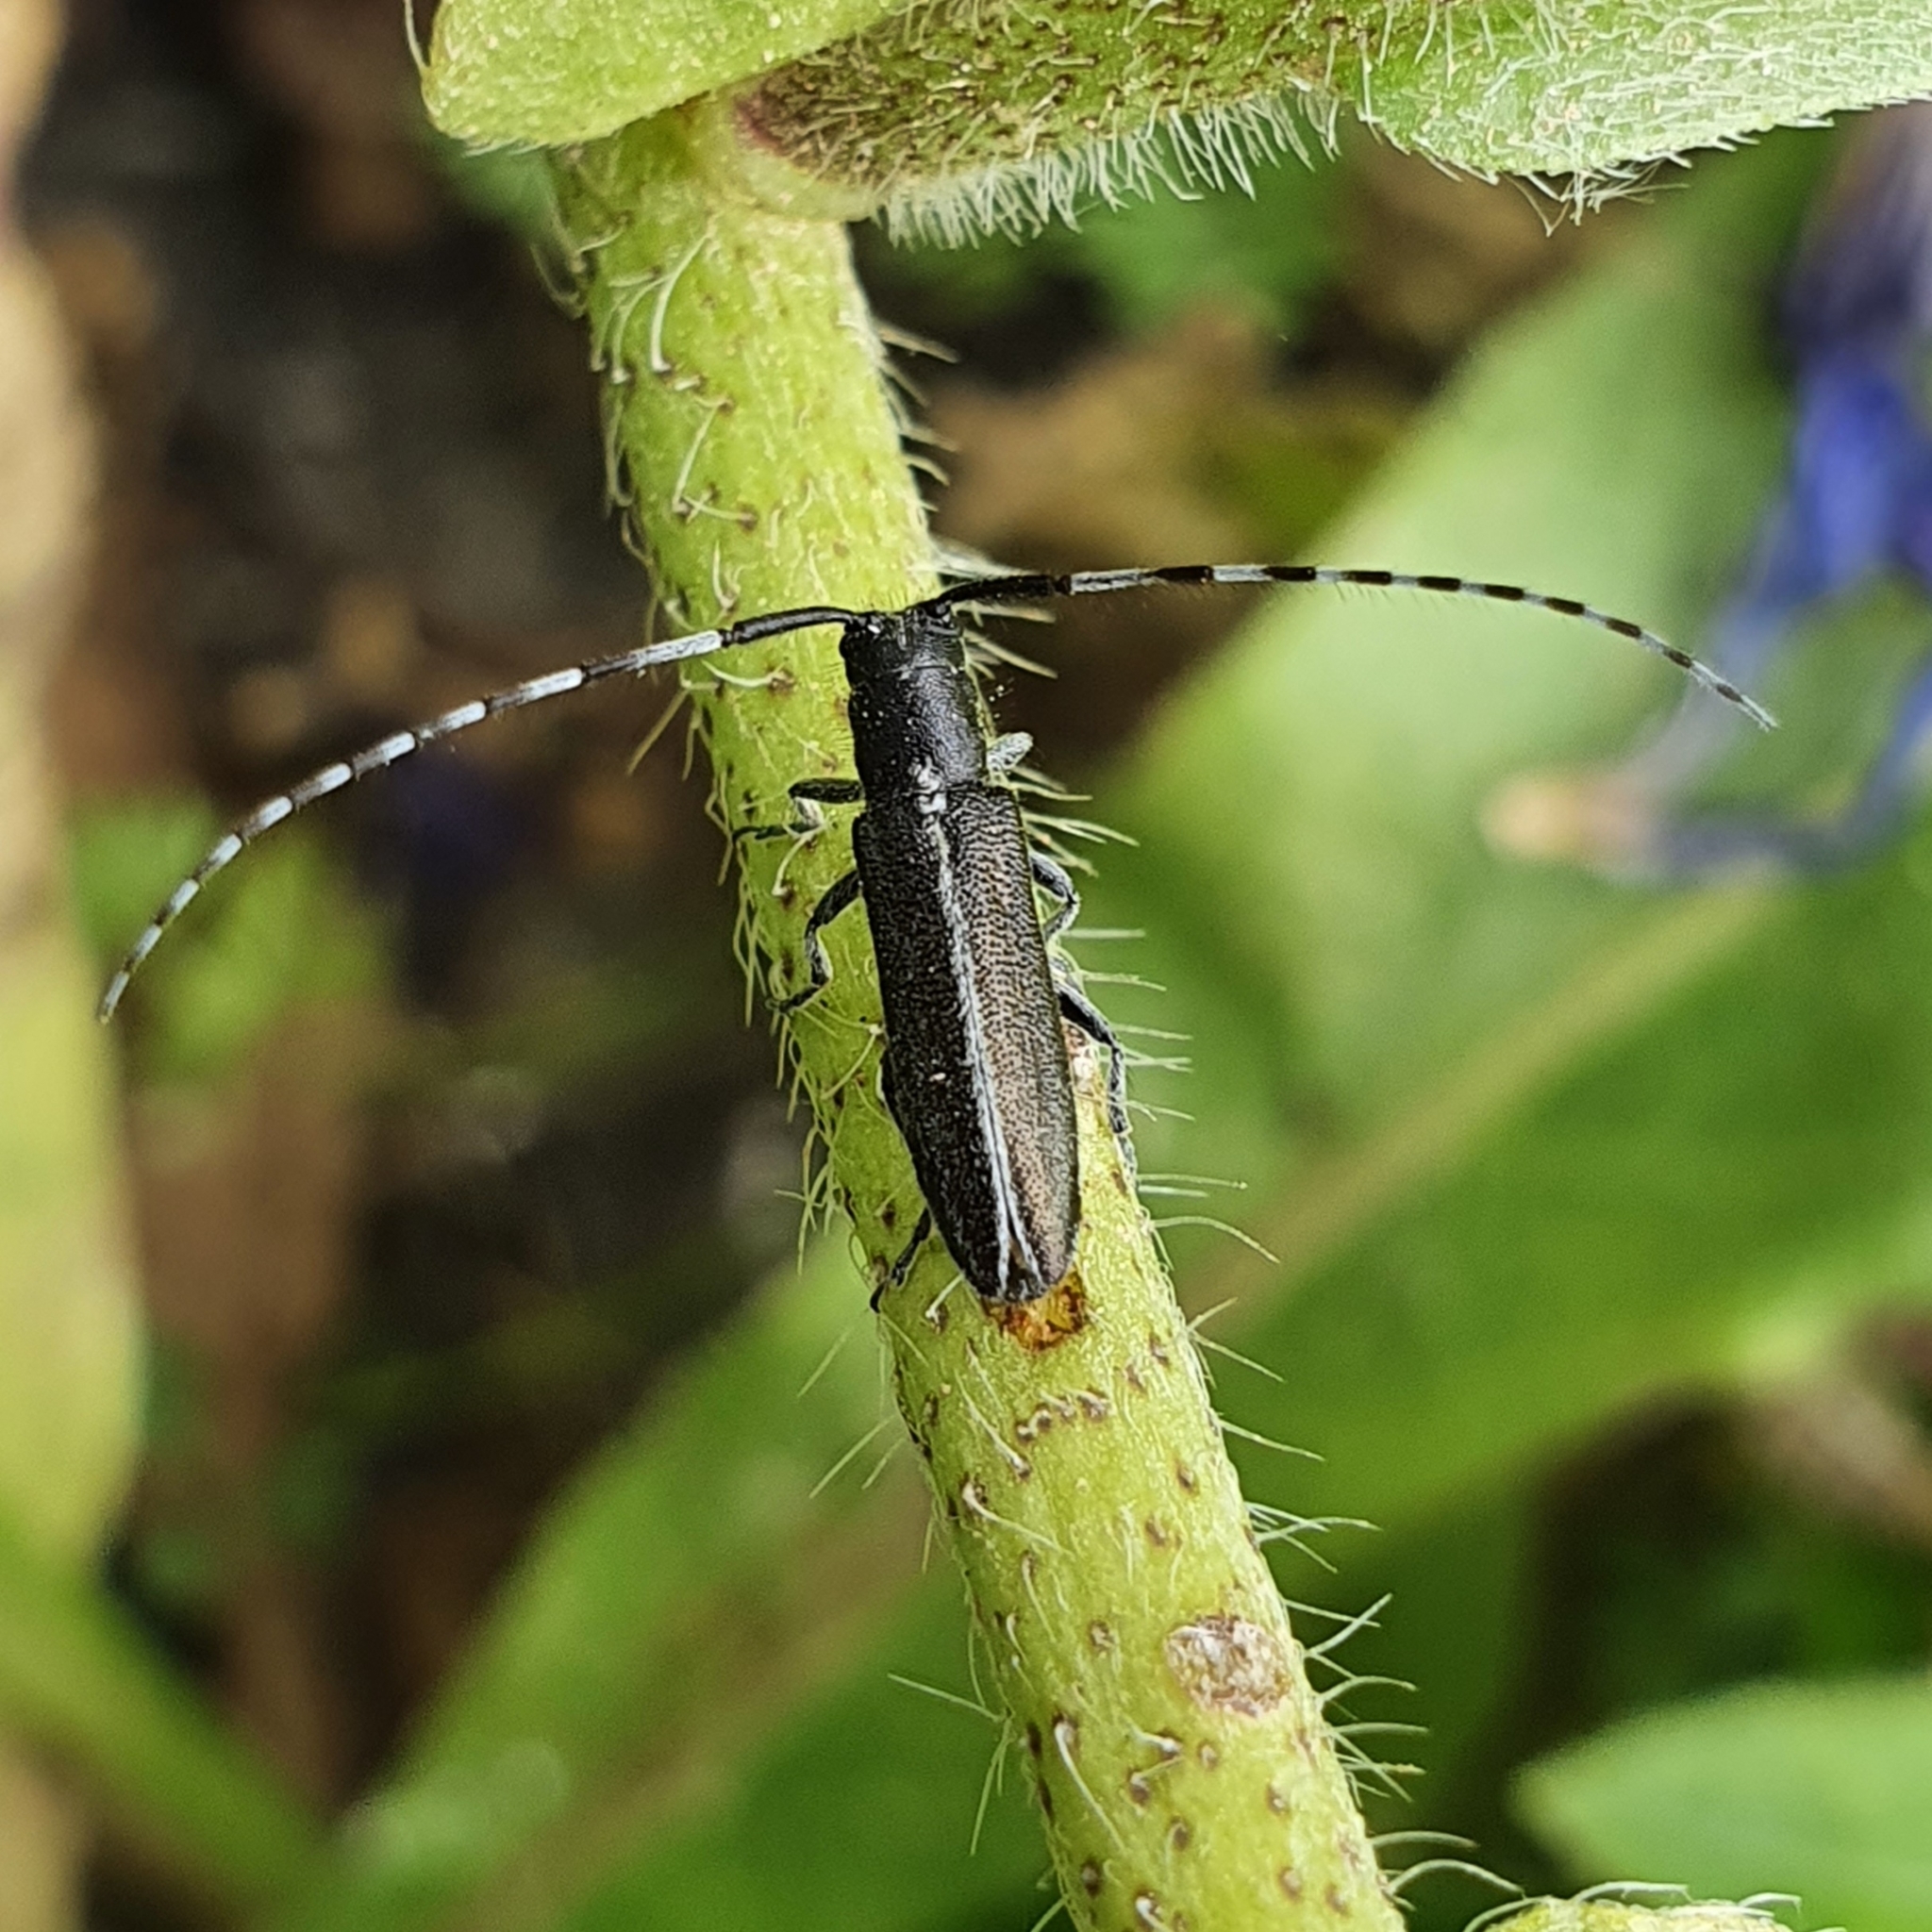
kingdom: Animalia
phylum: Arthropoda
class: Insecta
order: Coleoptera
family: Cerambycidae
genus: Agapanthia
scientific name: Agapanthia suturalis
